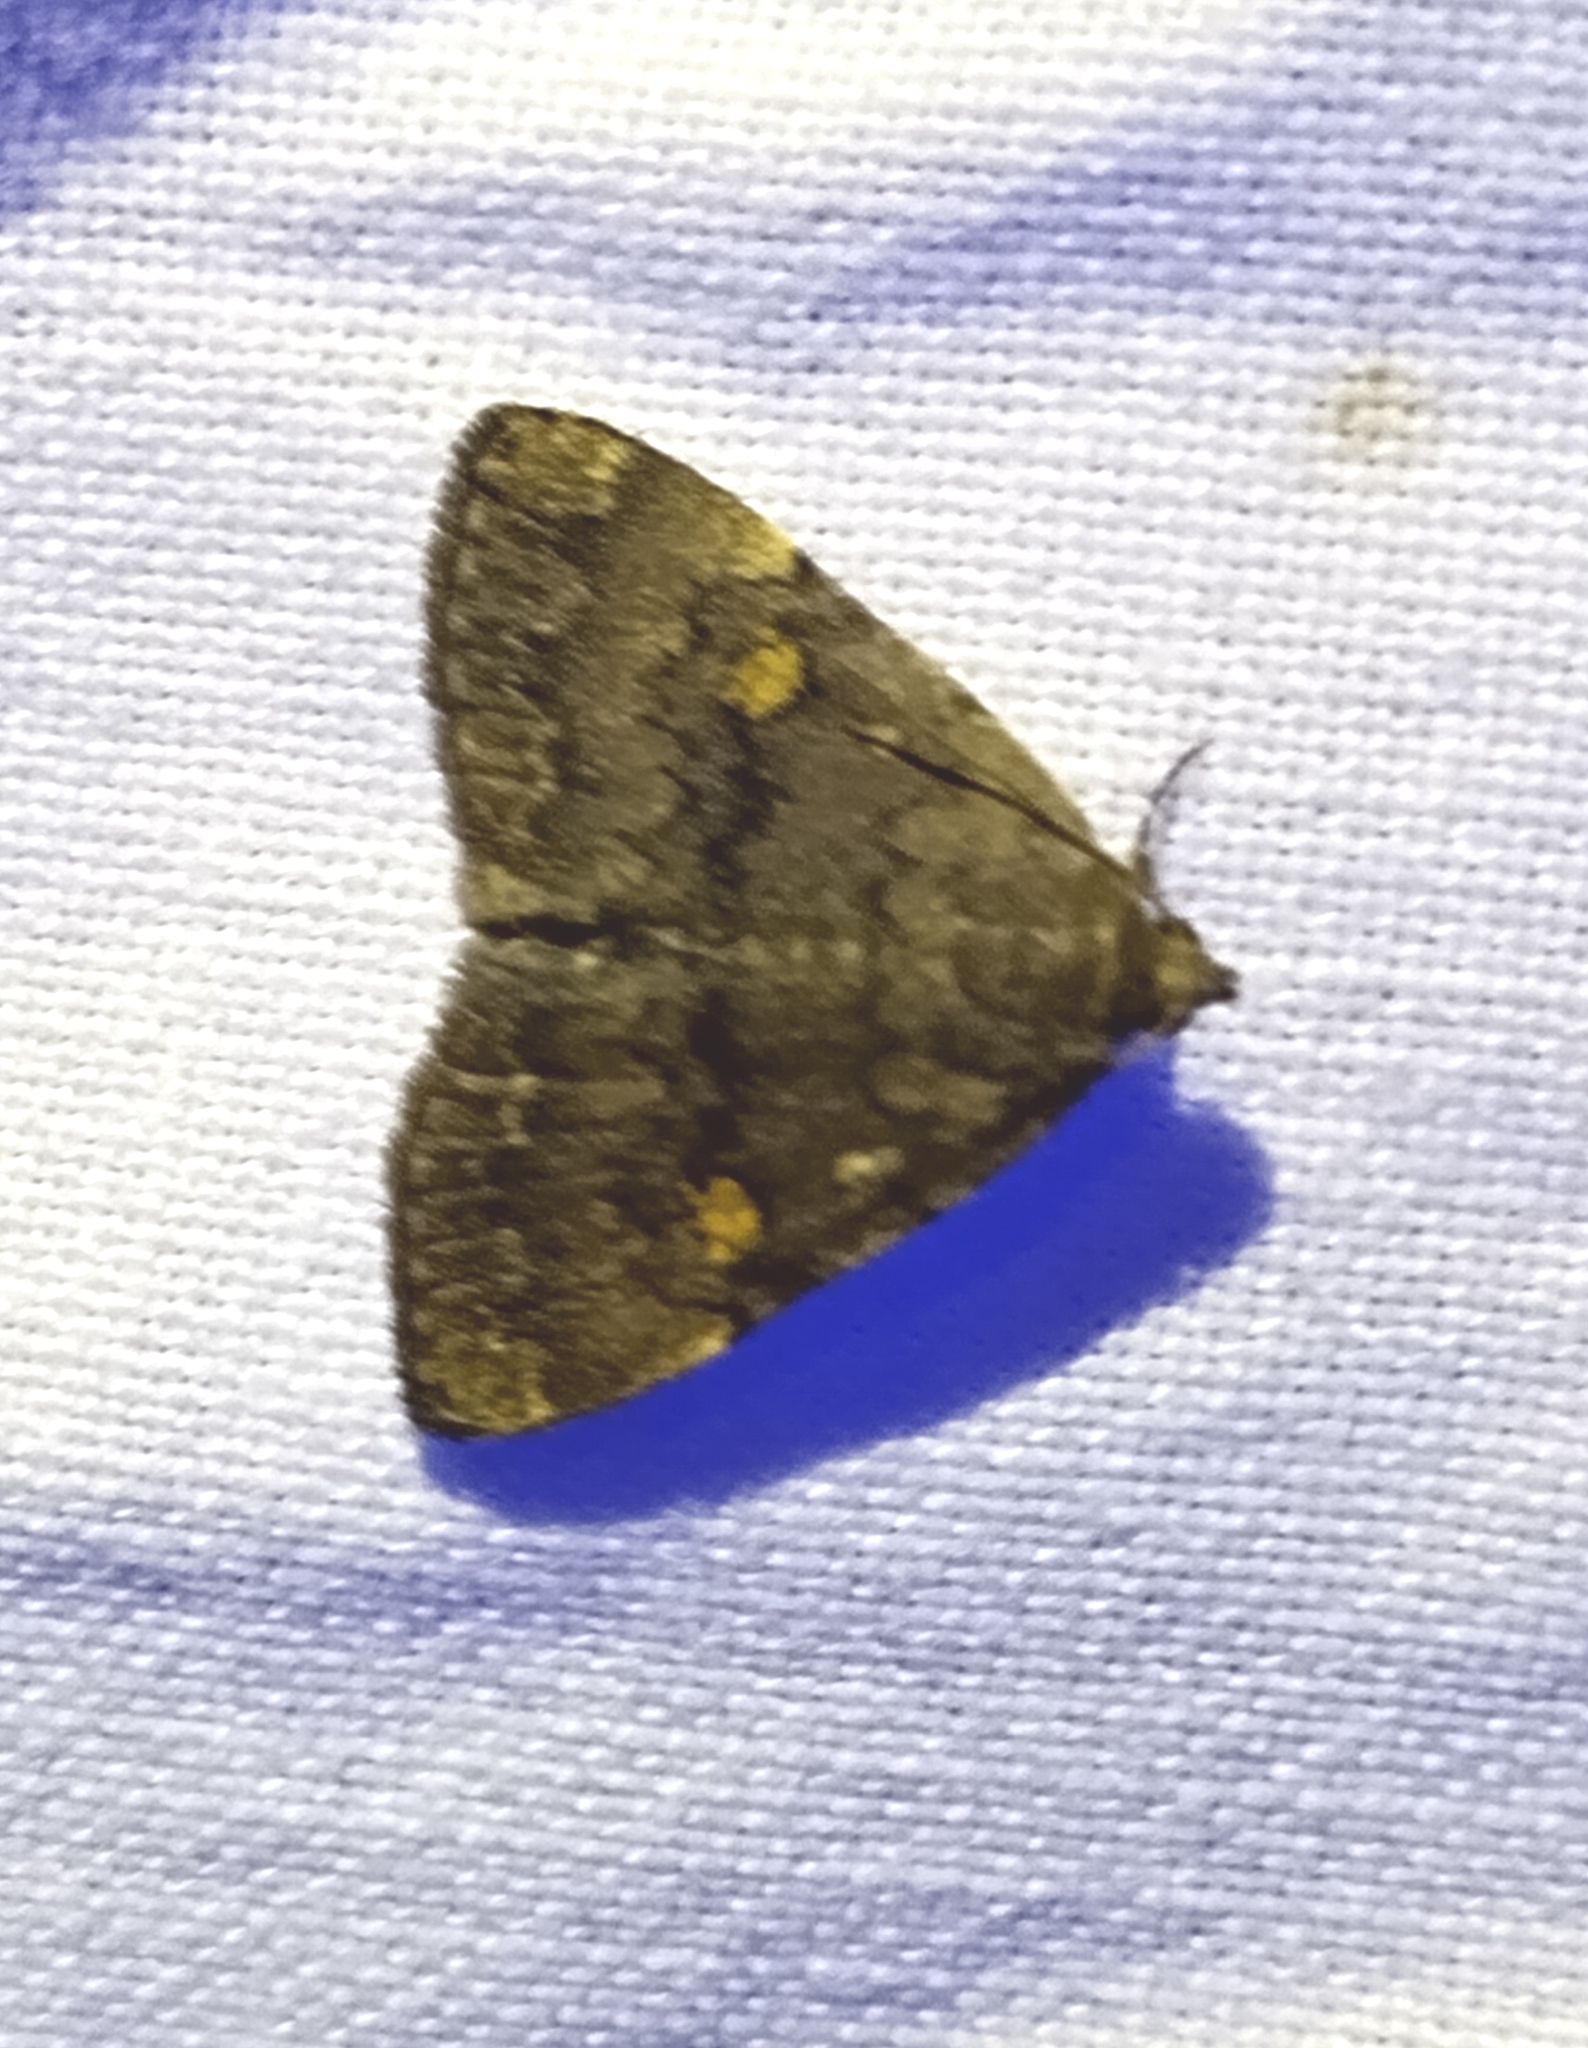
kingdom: Animalia
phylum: Arthropoda
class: Insecta
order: Lepidoptera
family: Erebidae
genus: Idia
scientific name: Idia aemula
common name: Common idia moth
